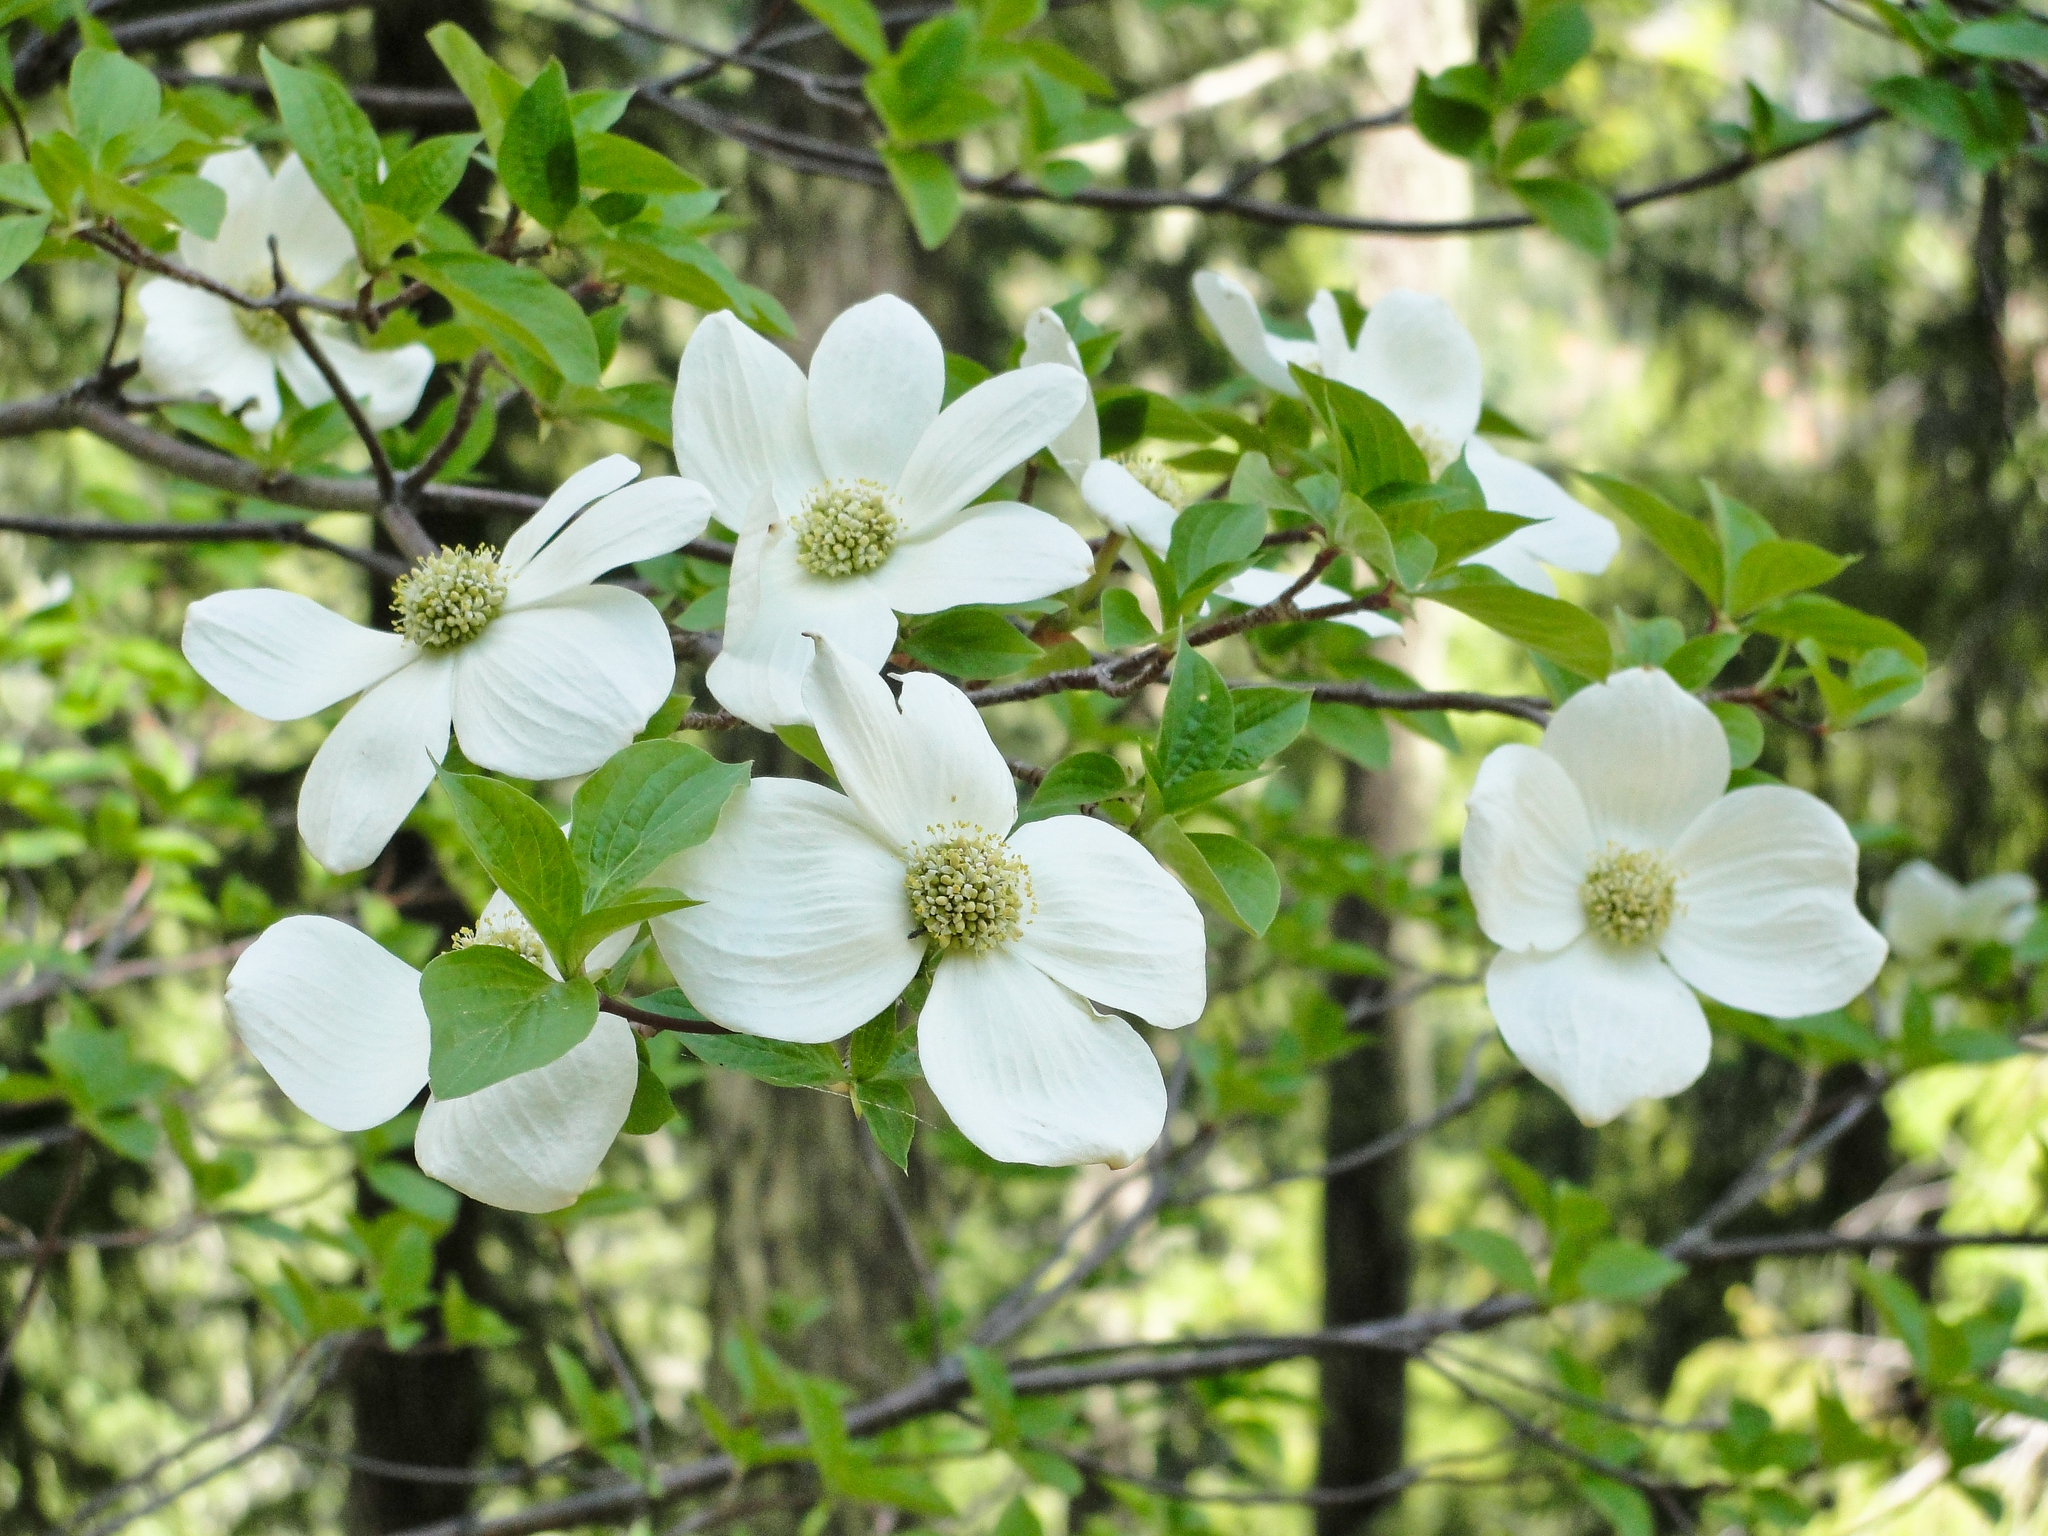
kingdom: Plantae
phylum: Tracheophyta
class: Magnoliopsida
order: Cornales
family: Cornaceae
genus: Cornus
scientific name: Cornus nuttallii
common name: Pacific dogwood
